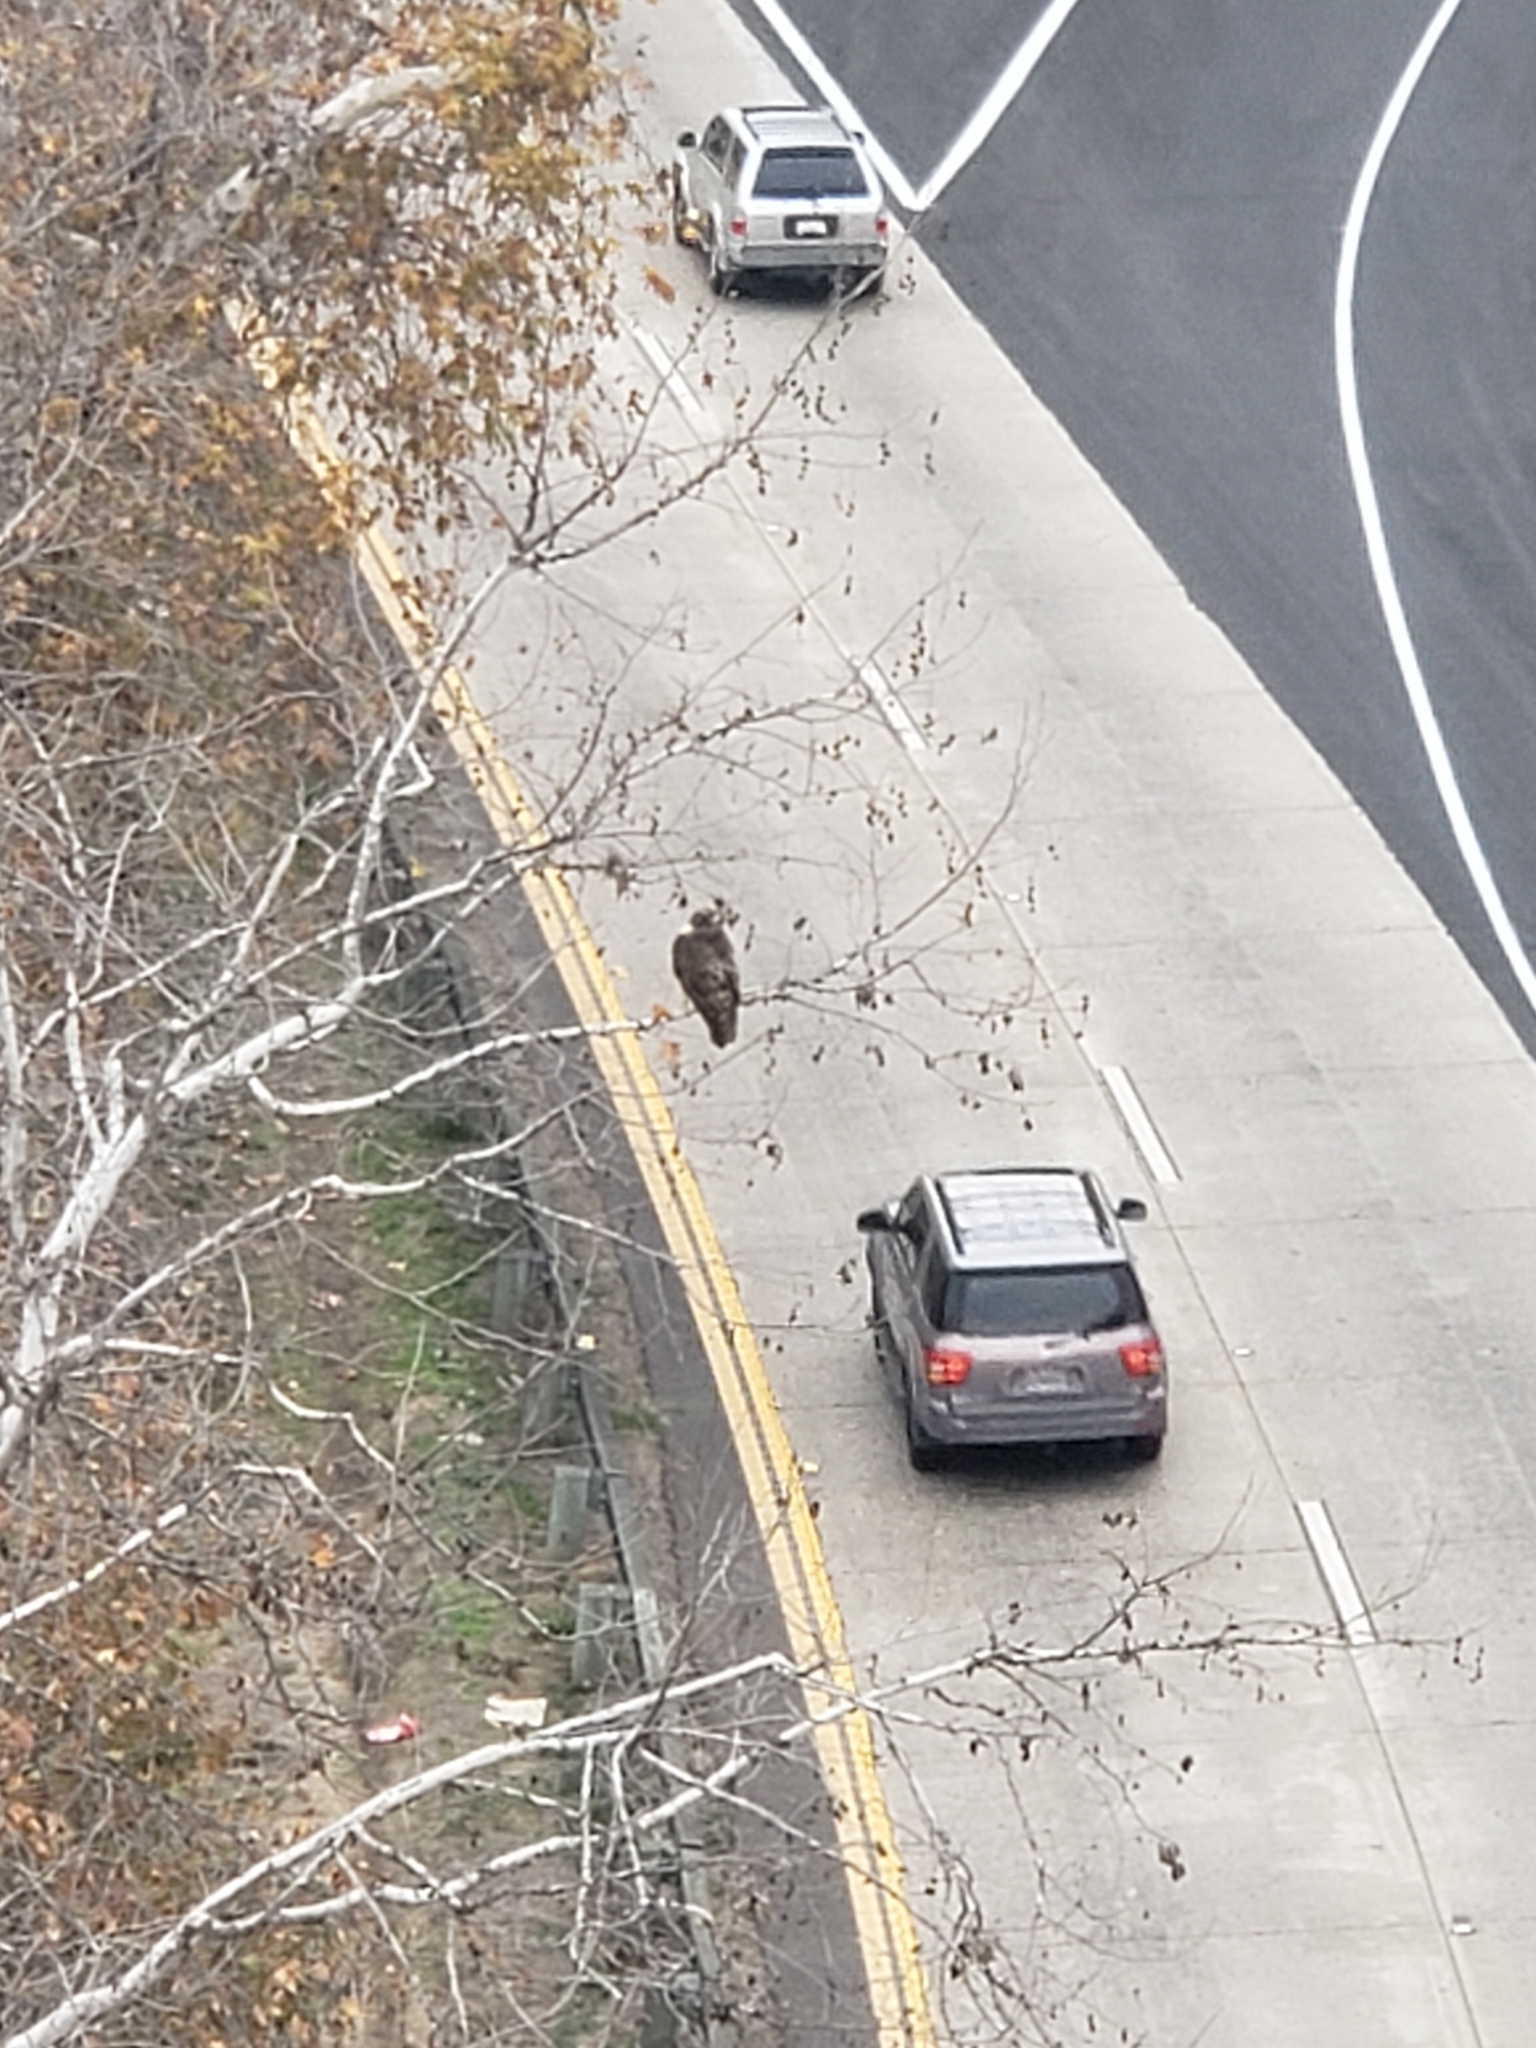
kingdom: Animalia
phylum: Chordata
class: Aves
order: Accipitriformes
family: Accipitridae
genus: Buteo
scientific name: Buteo jamaicensis
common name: Red-tailed hawk
